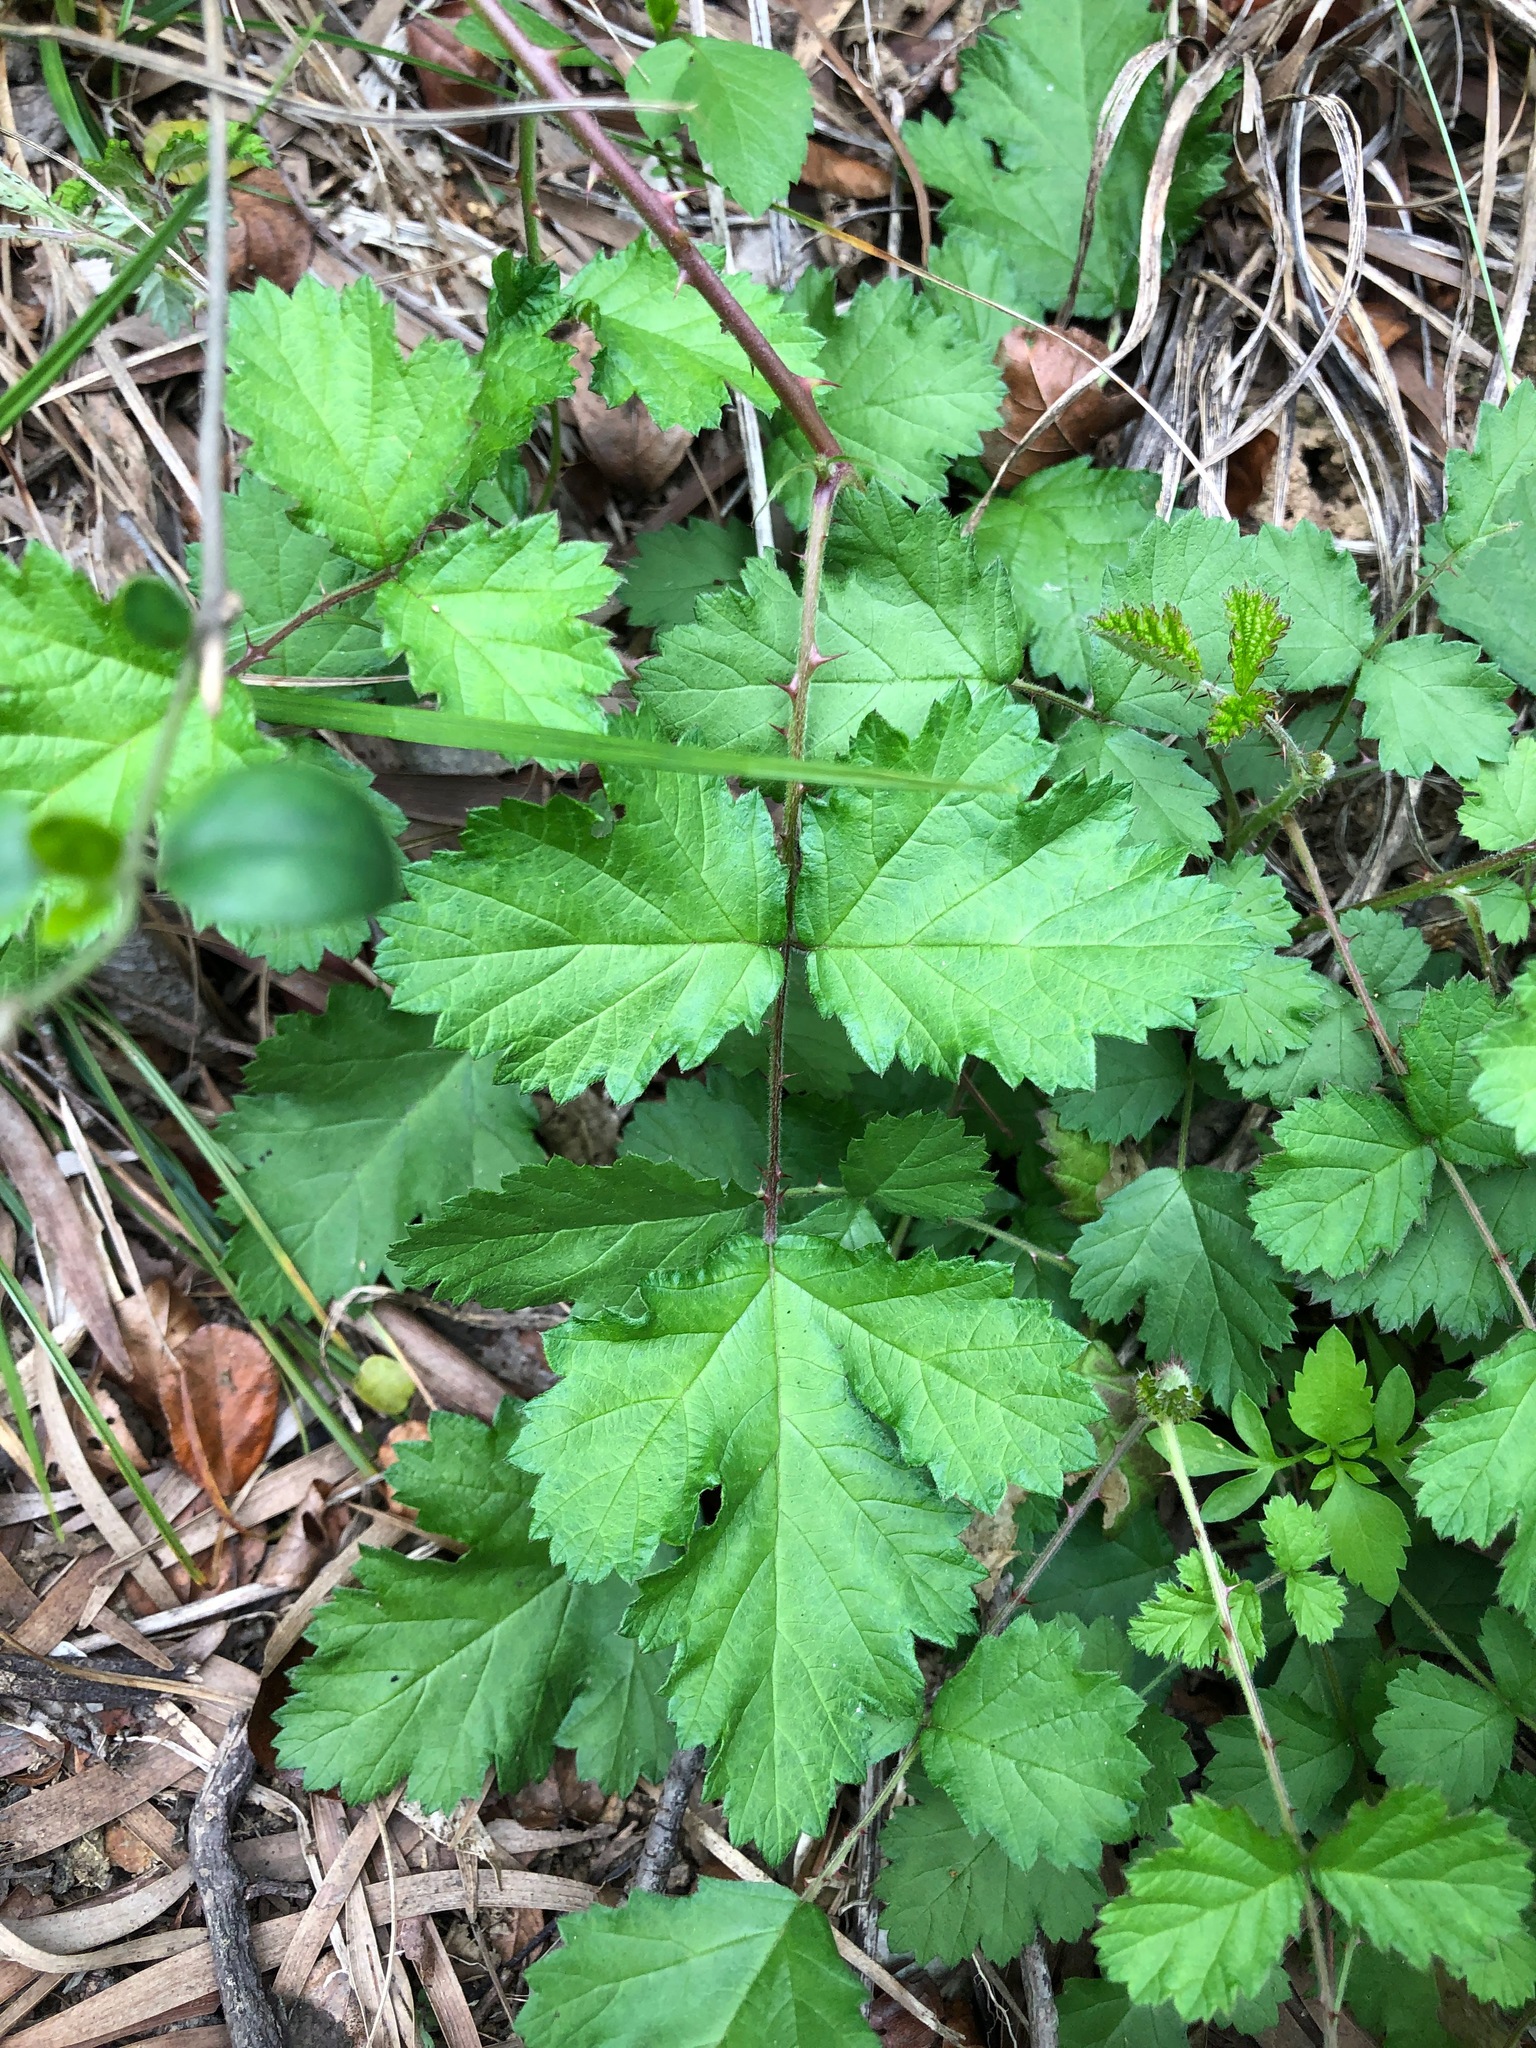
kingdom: Plantae
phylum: Tracheophyta
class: Magnoliopsida
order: Rosales
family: Rosaceae
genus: Rubus
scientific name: Rubus parvifolius
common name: Threeleaf blackberry
